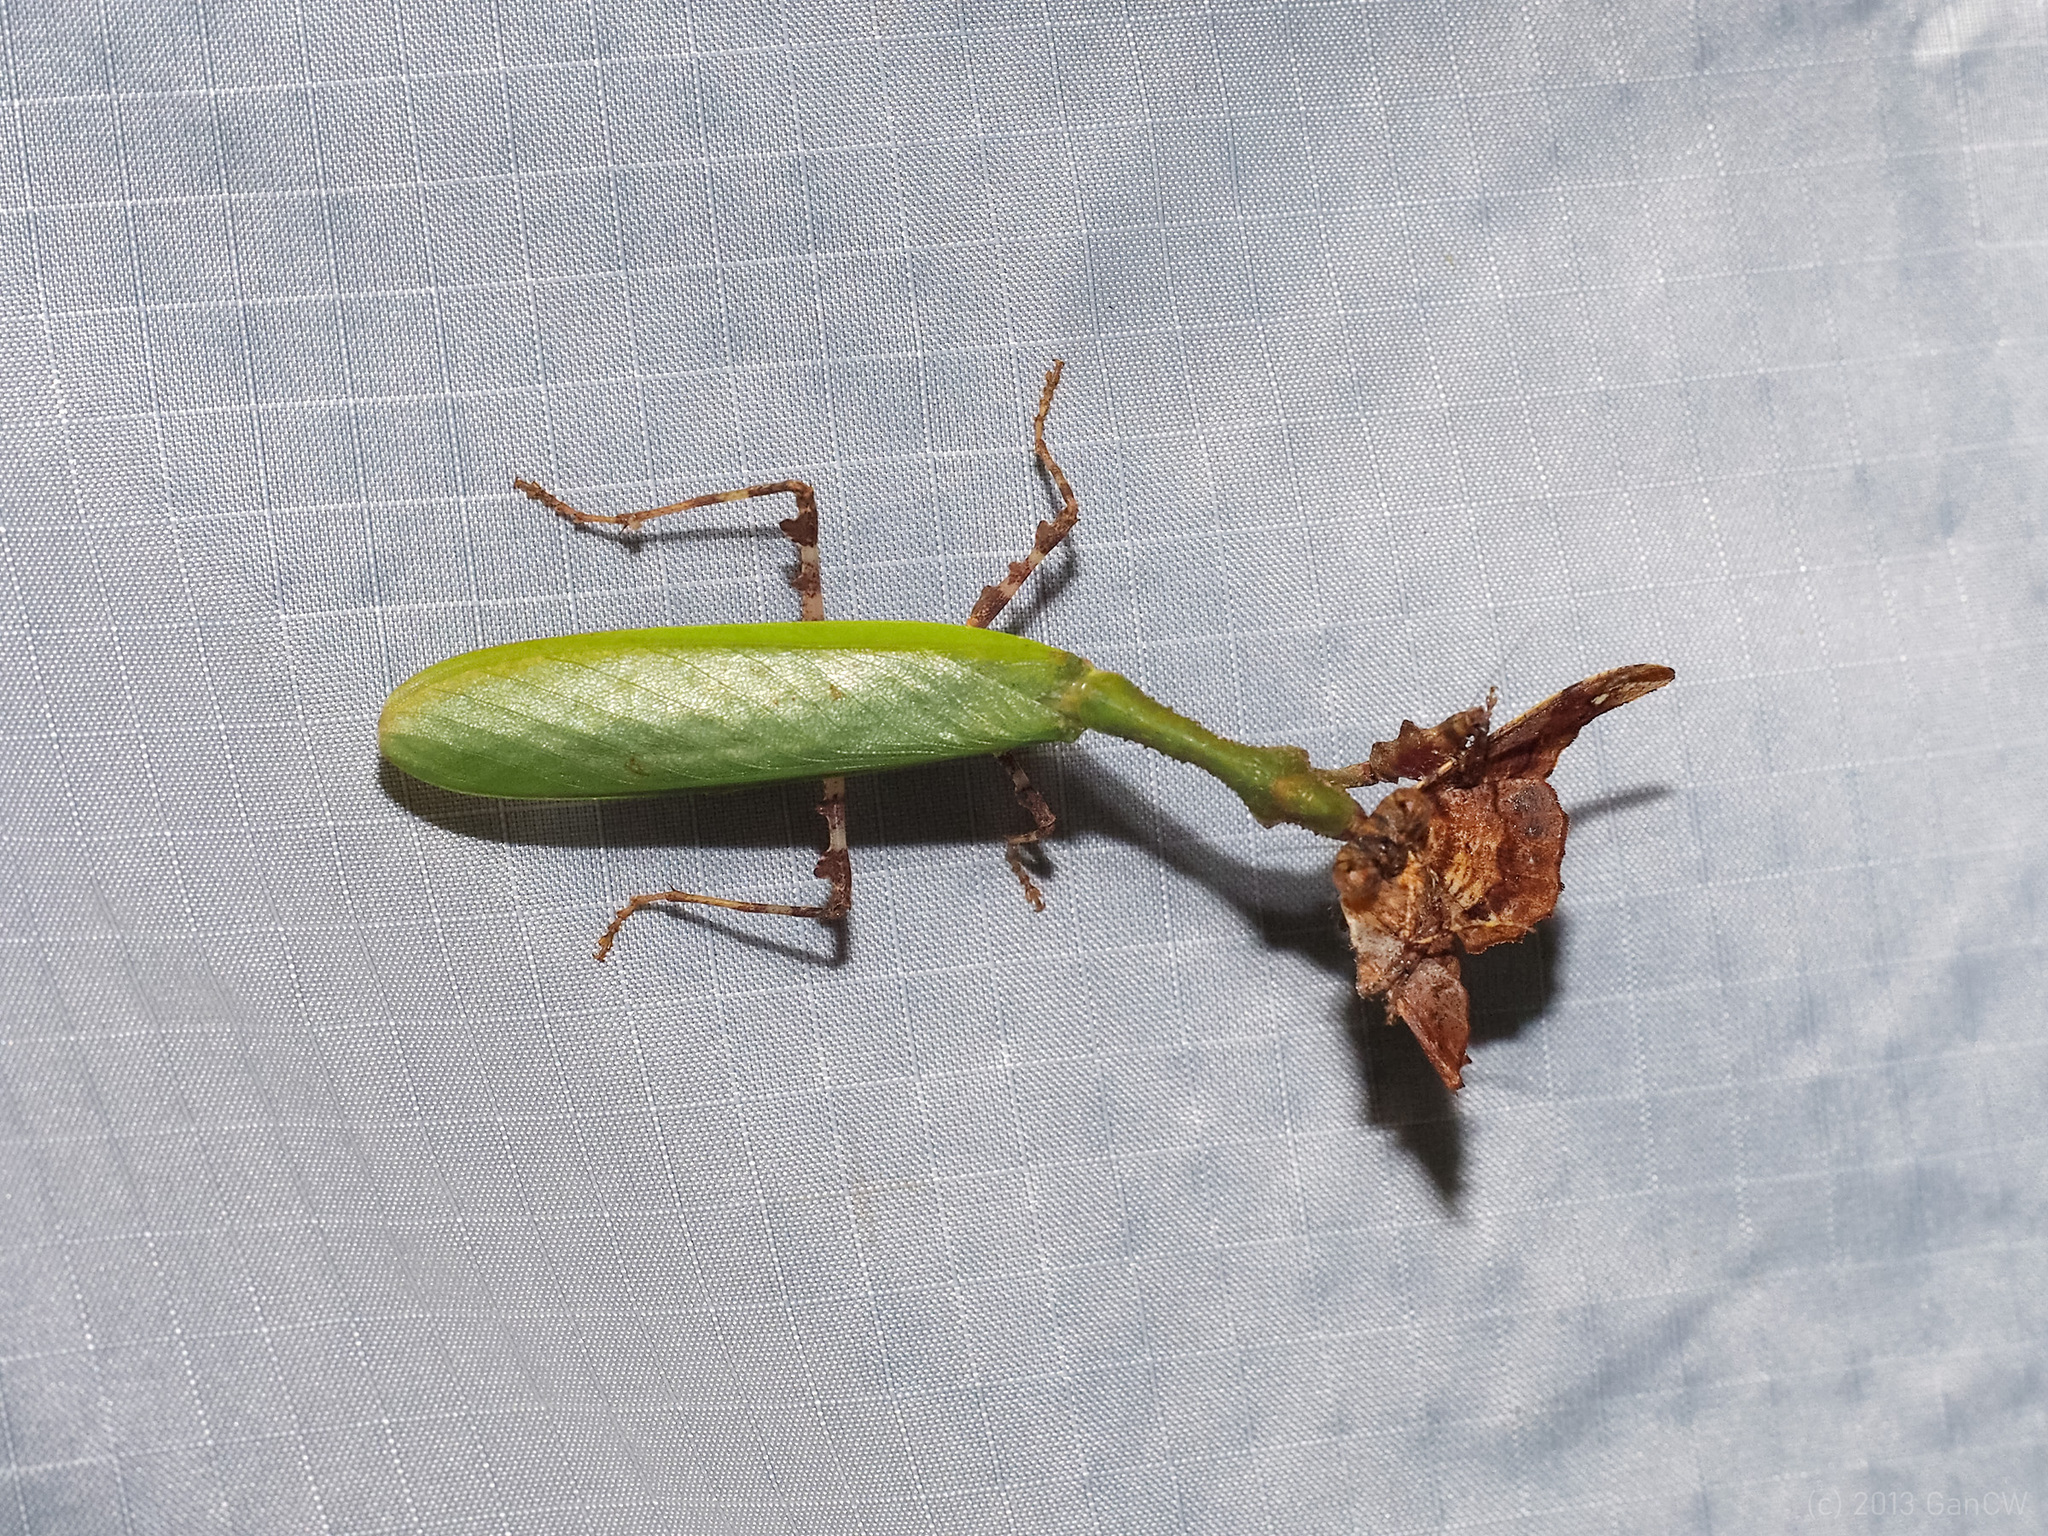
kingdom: Animalia
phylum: Arthropoda
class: Insecta
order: Mantodea
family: Hymenopodidae
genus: Psychomantis
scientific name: Psychomantis malayensis
